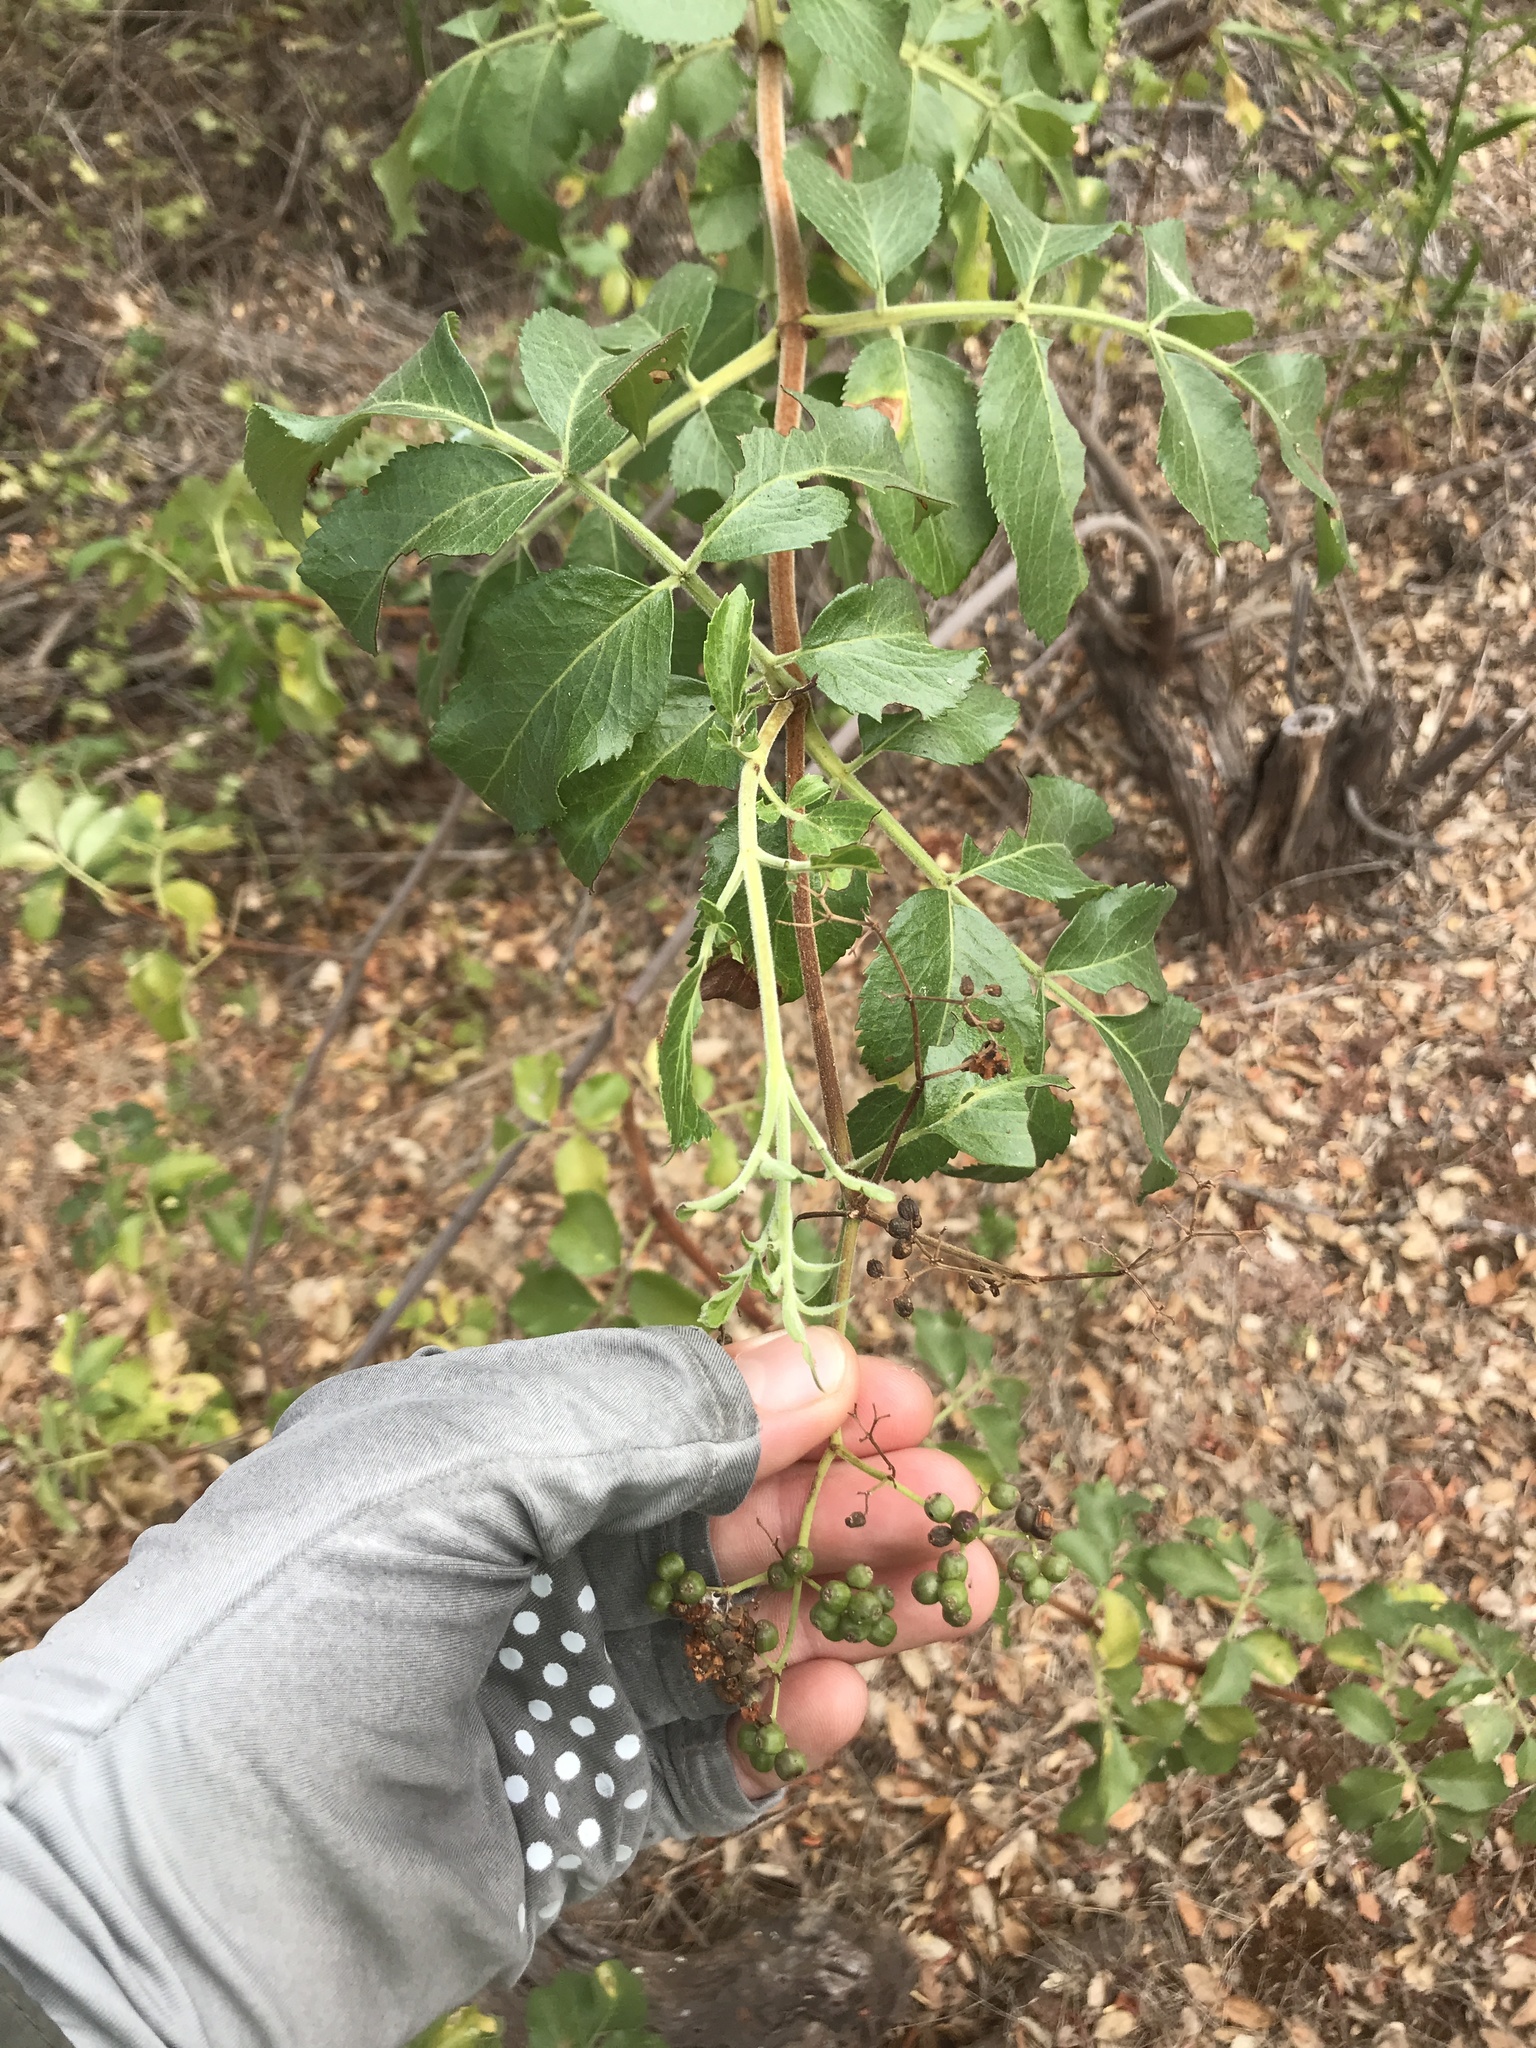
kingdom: Plantae
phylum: Tracheophyta
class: Magnoliopsida
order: Dipsacales
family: Viburnaceae
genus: Sambucus
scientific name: Sambucus cerulea
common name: Blue elder
